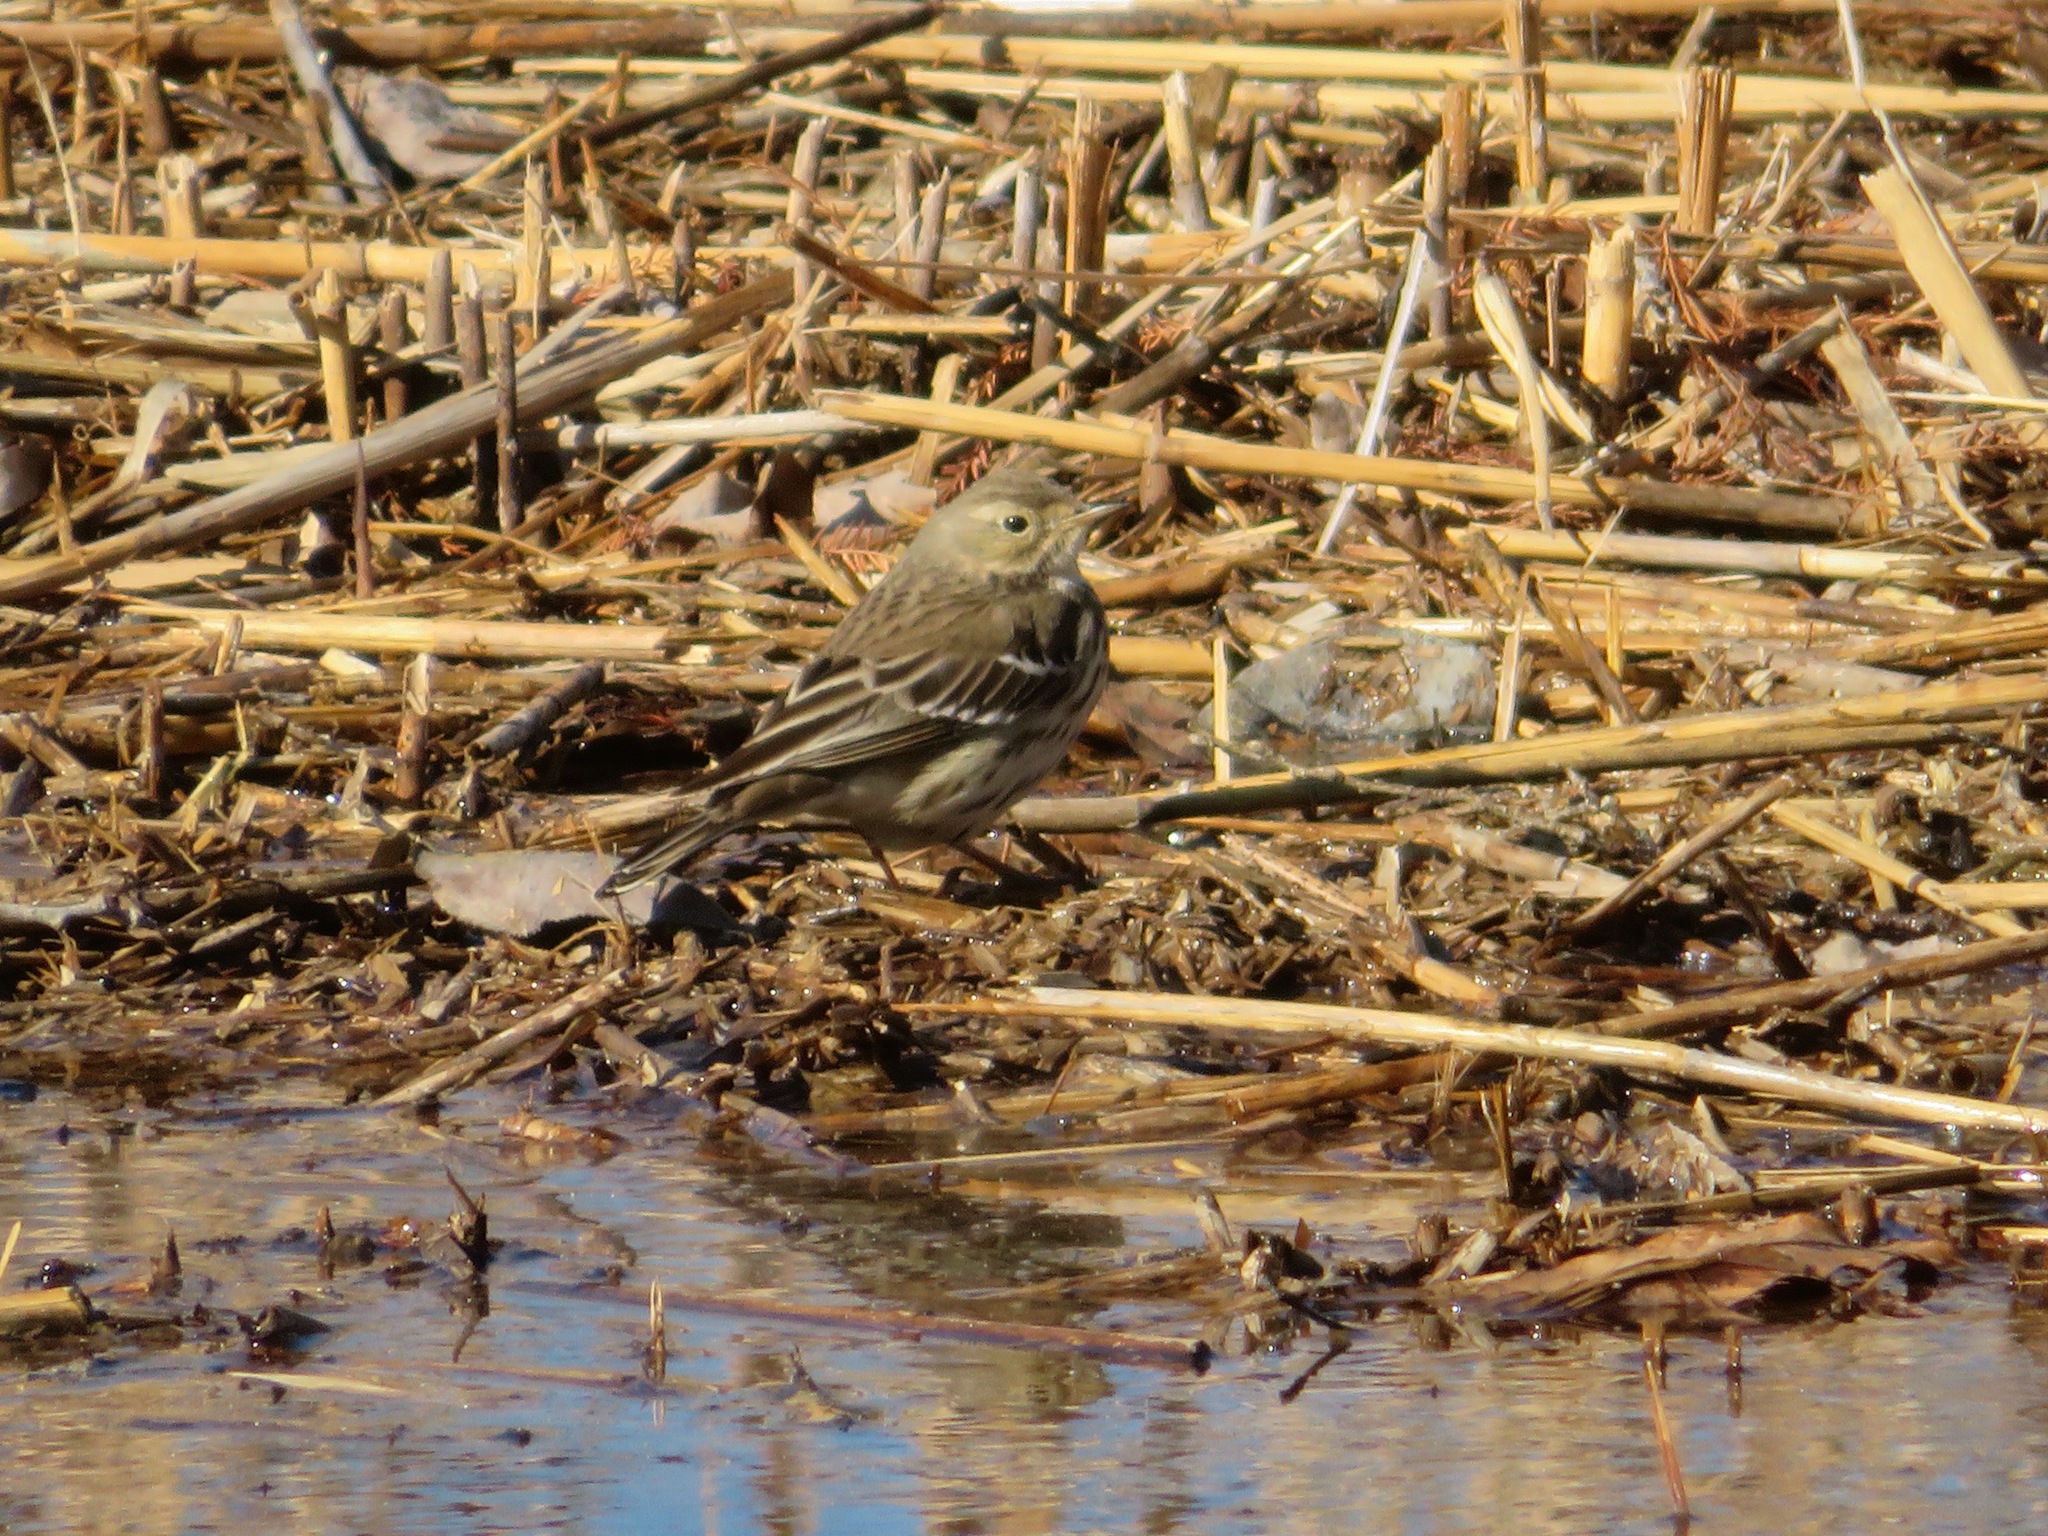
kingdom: Animalia
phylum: Chordata
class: Aves
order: Passeriformes
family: Motacillidae
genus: Anthus
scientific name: Anthus rubescens
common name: Buff-bellied pipit
